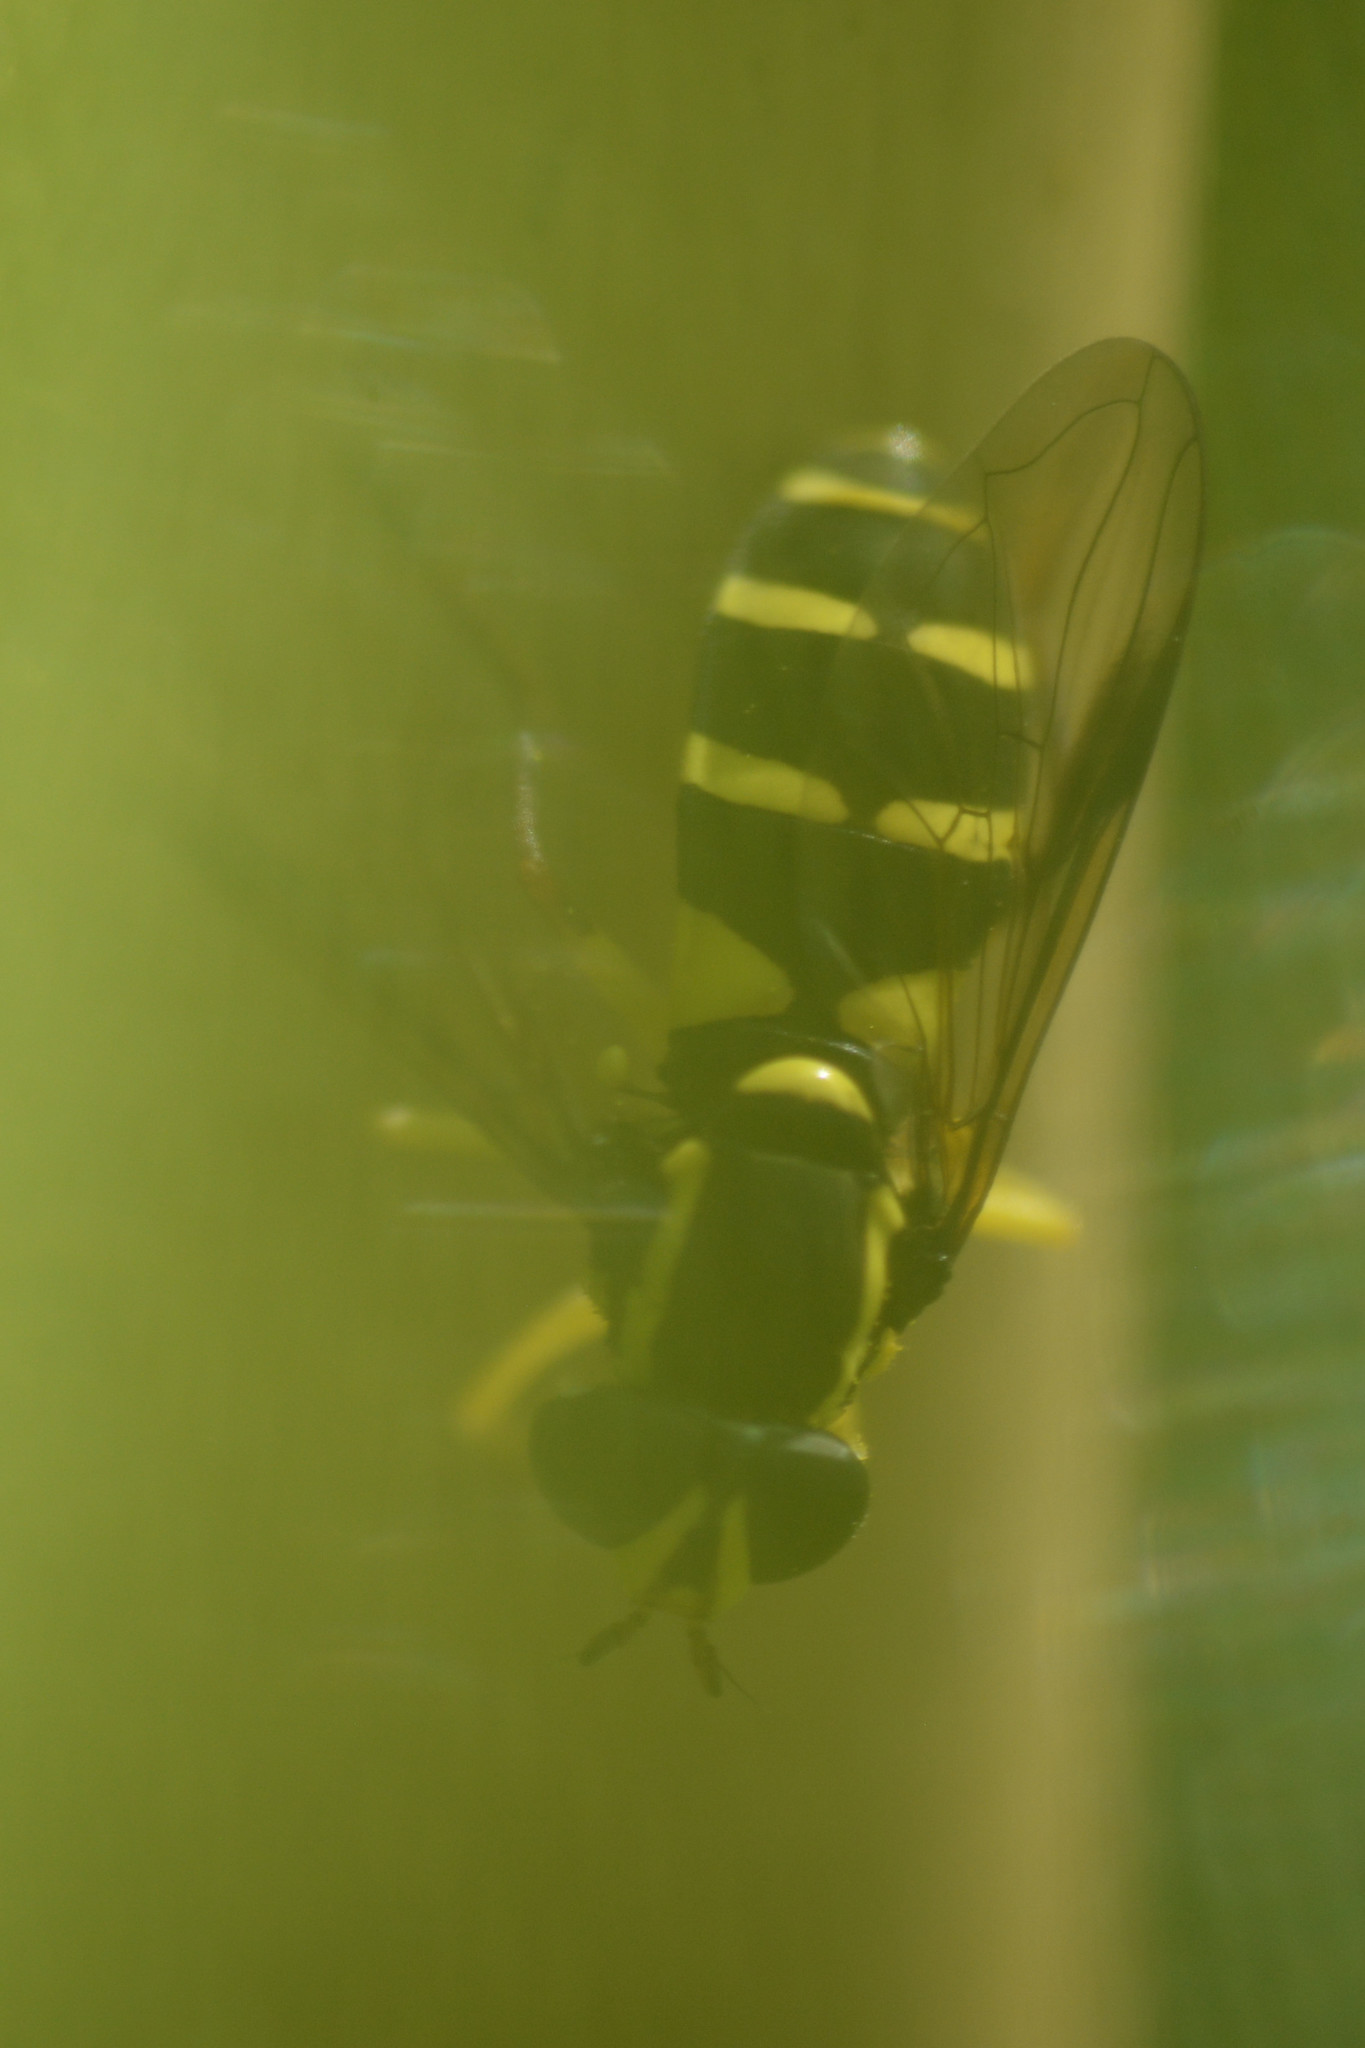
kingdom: Animalia
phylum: Arthropoda
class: Insecta
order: Diptera
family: Syrphidae
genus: Philhelius
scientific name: Philhelius pedissequum
